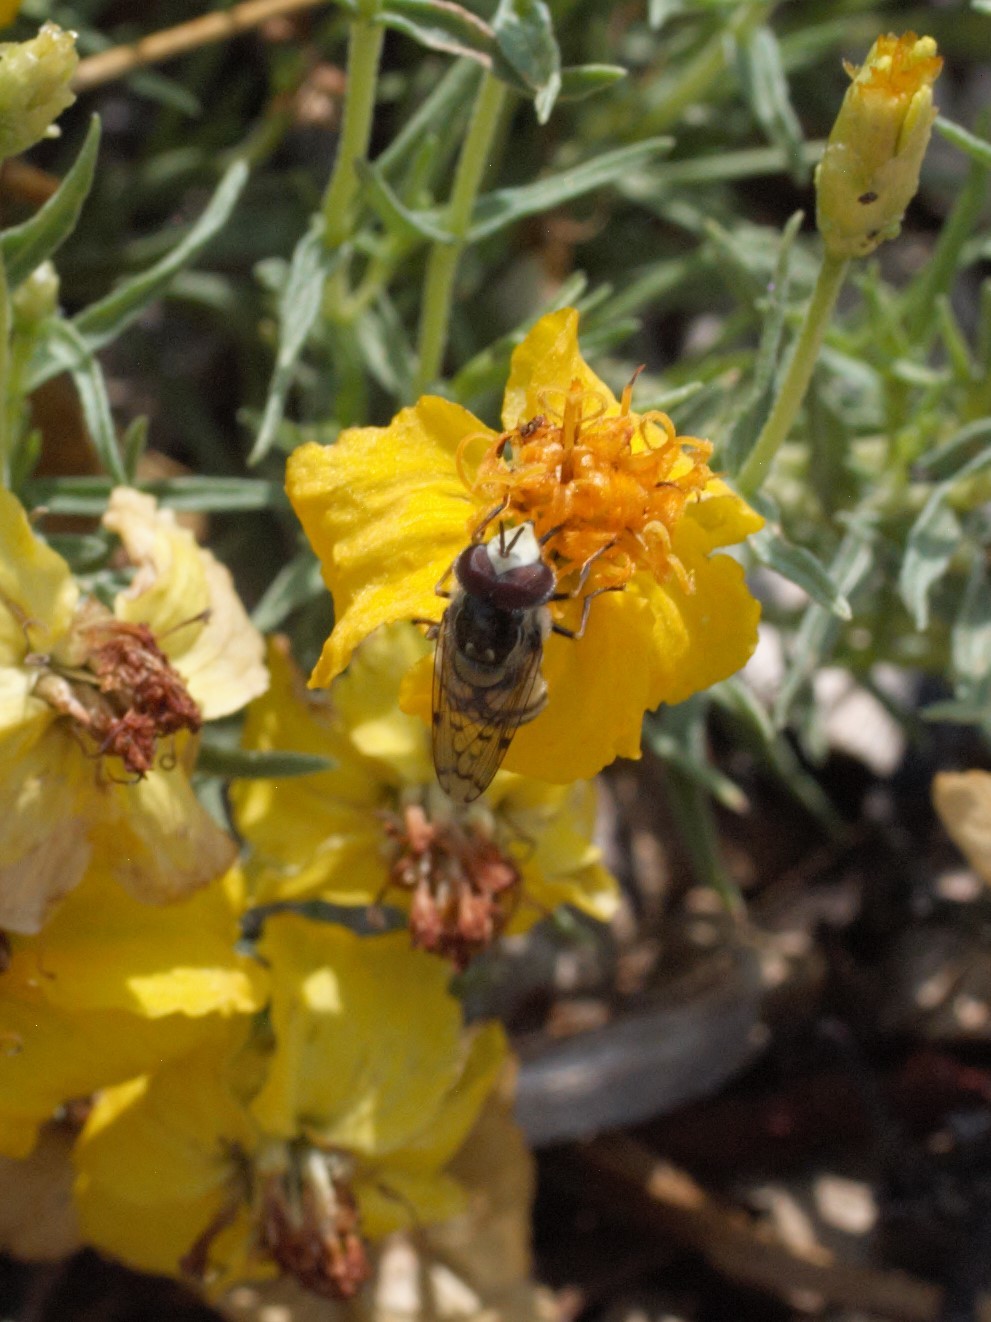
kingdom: Animalia
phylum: Arthropoda
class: Insecta
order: Diptera
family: Syrphidae
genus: Copestylum
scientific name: Copestylum satur
